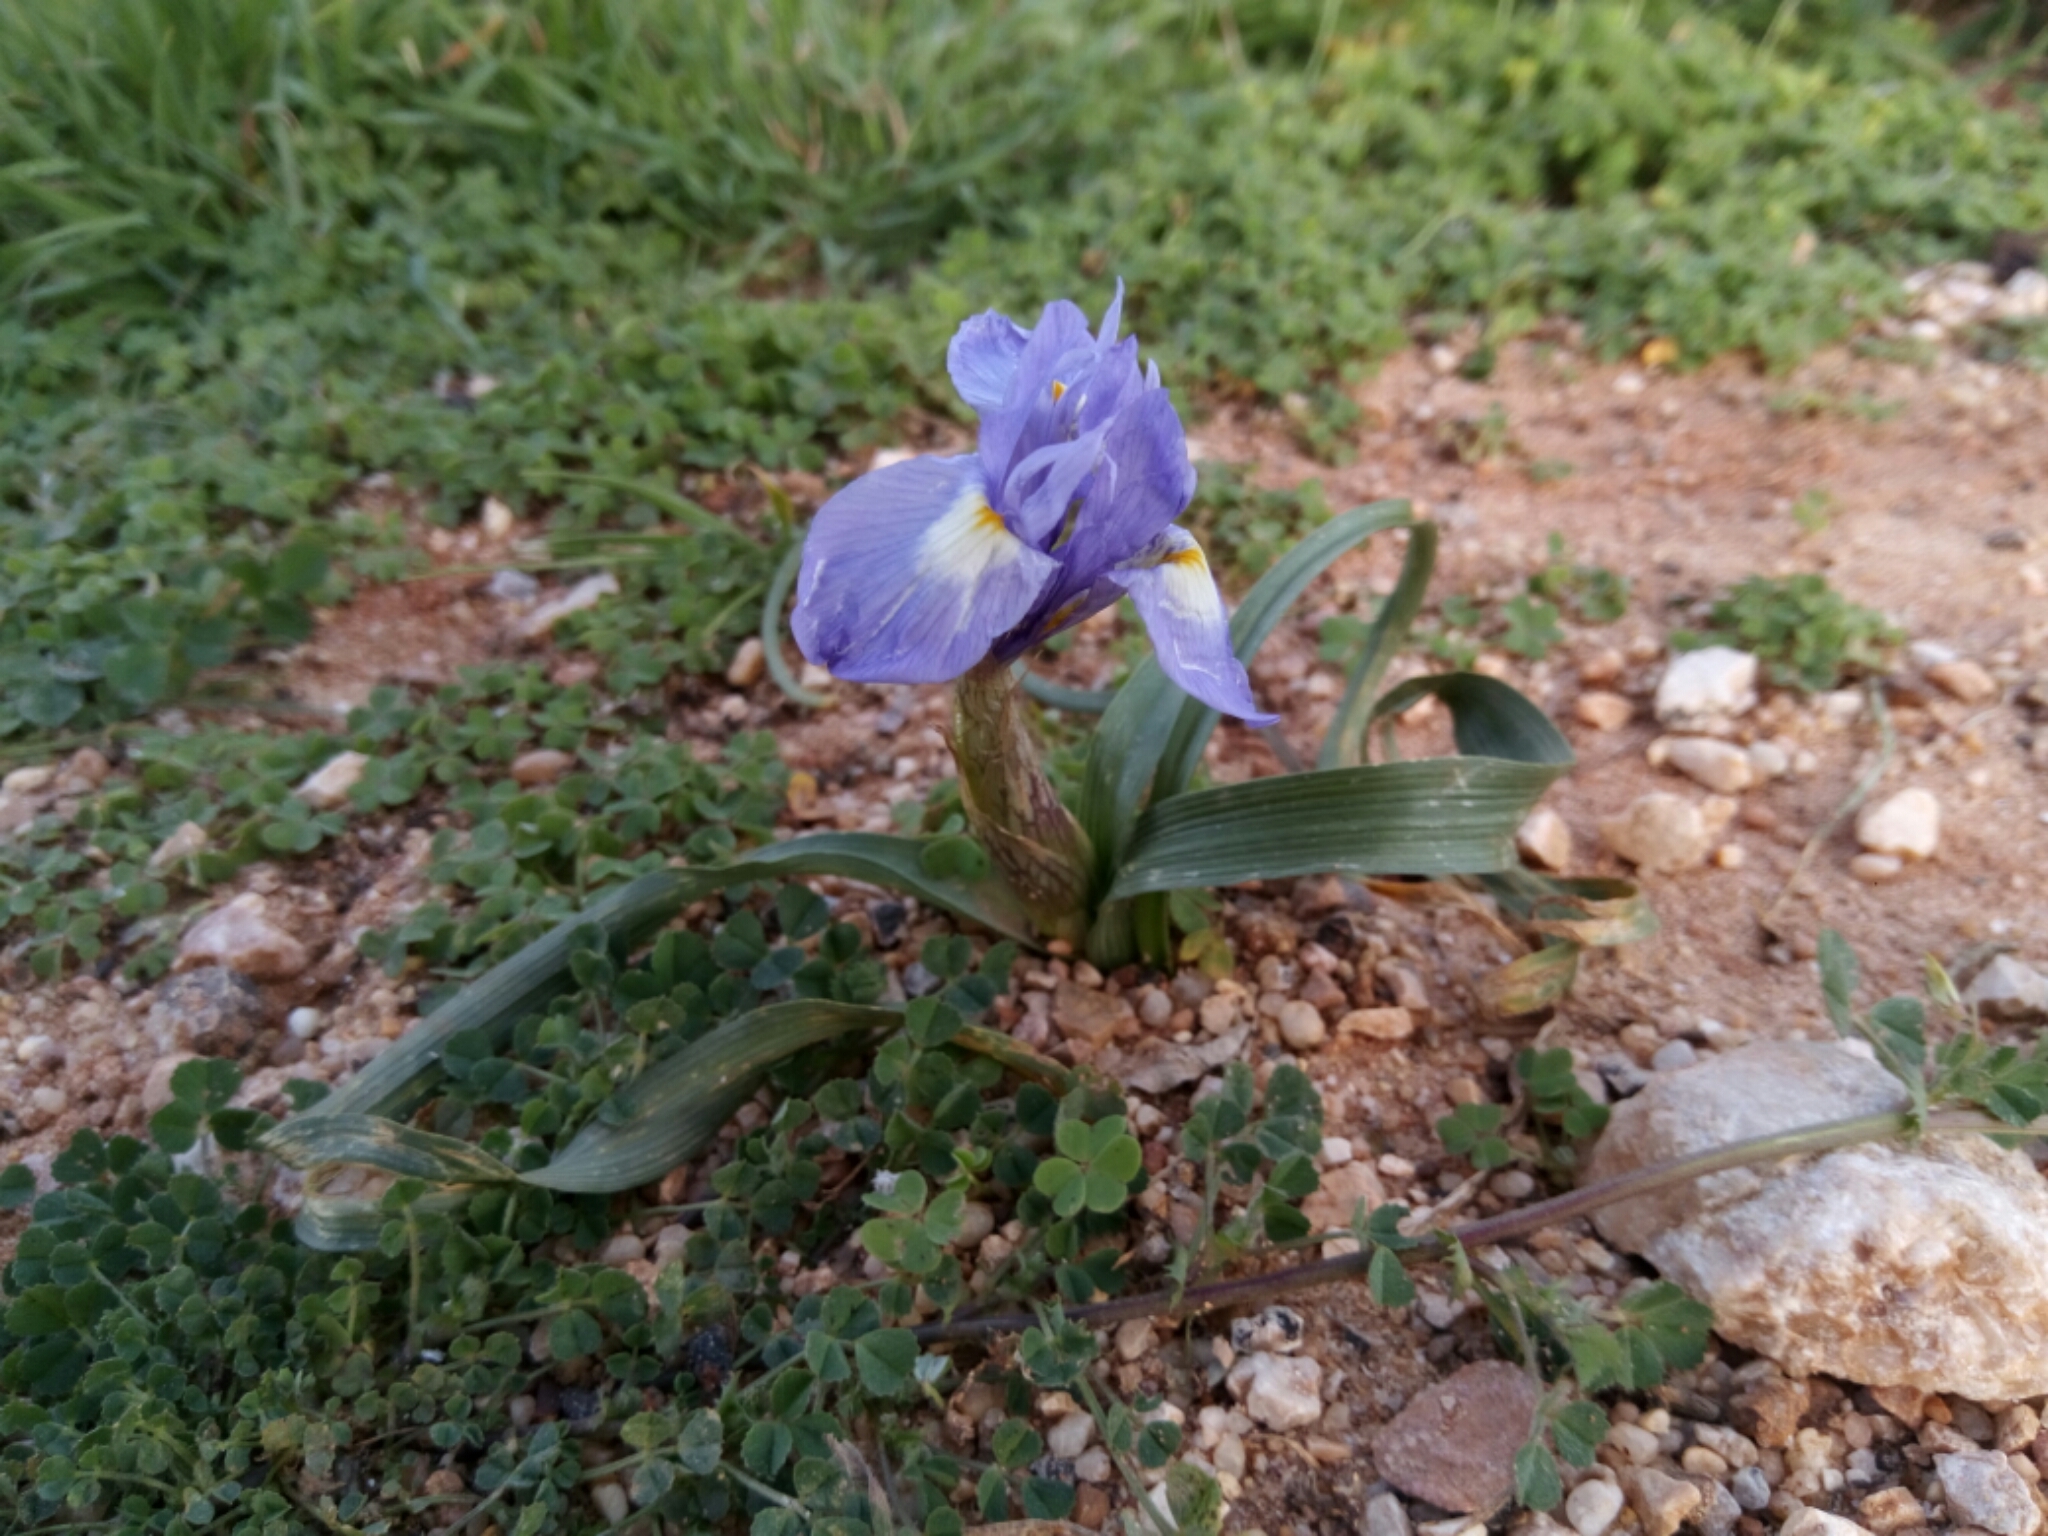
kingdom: Plantae
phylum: Tracheophyta
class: Liliopsida
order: Asparagales
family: Iridaceae
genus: Moraea
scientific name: Moraea sisyrinchium
